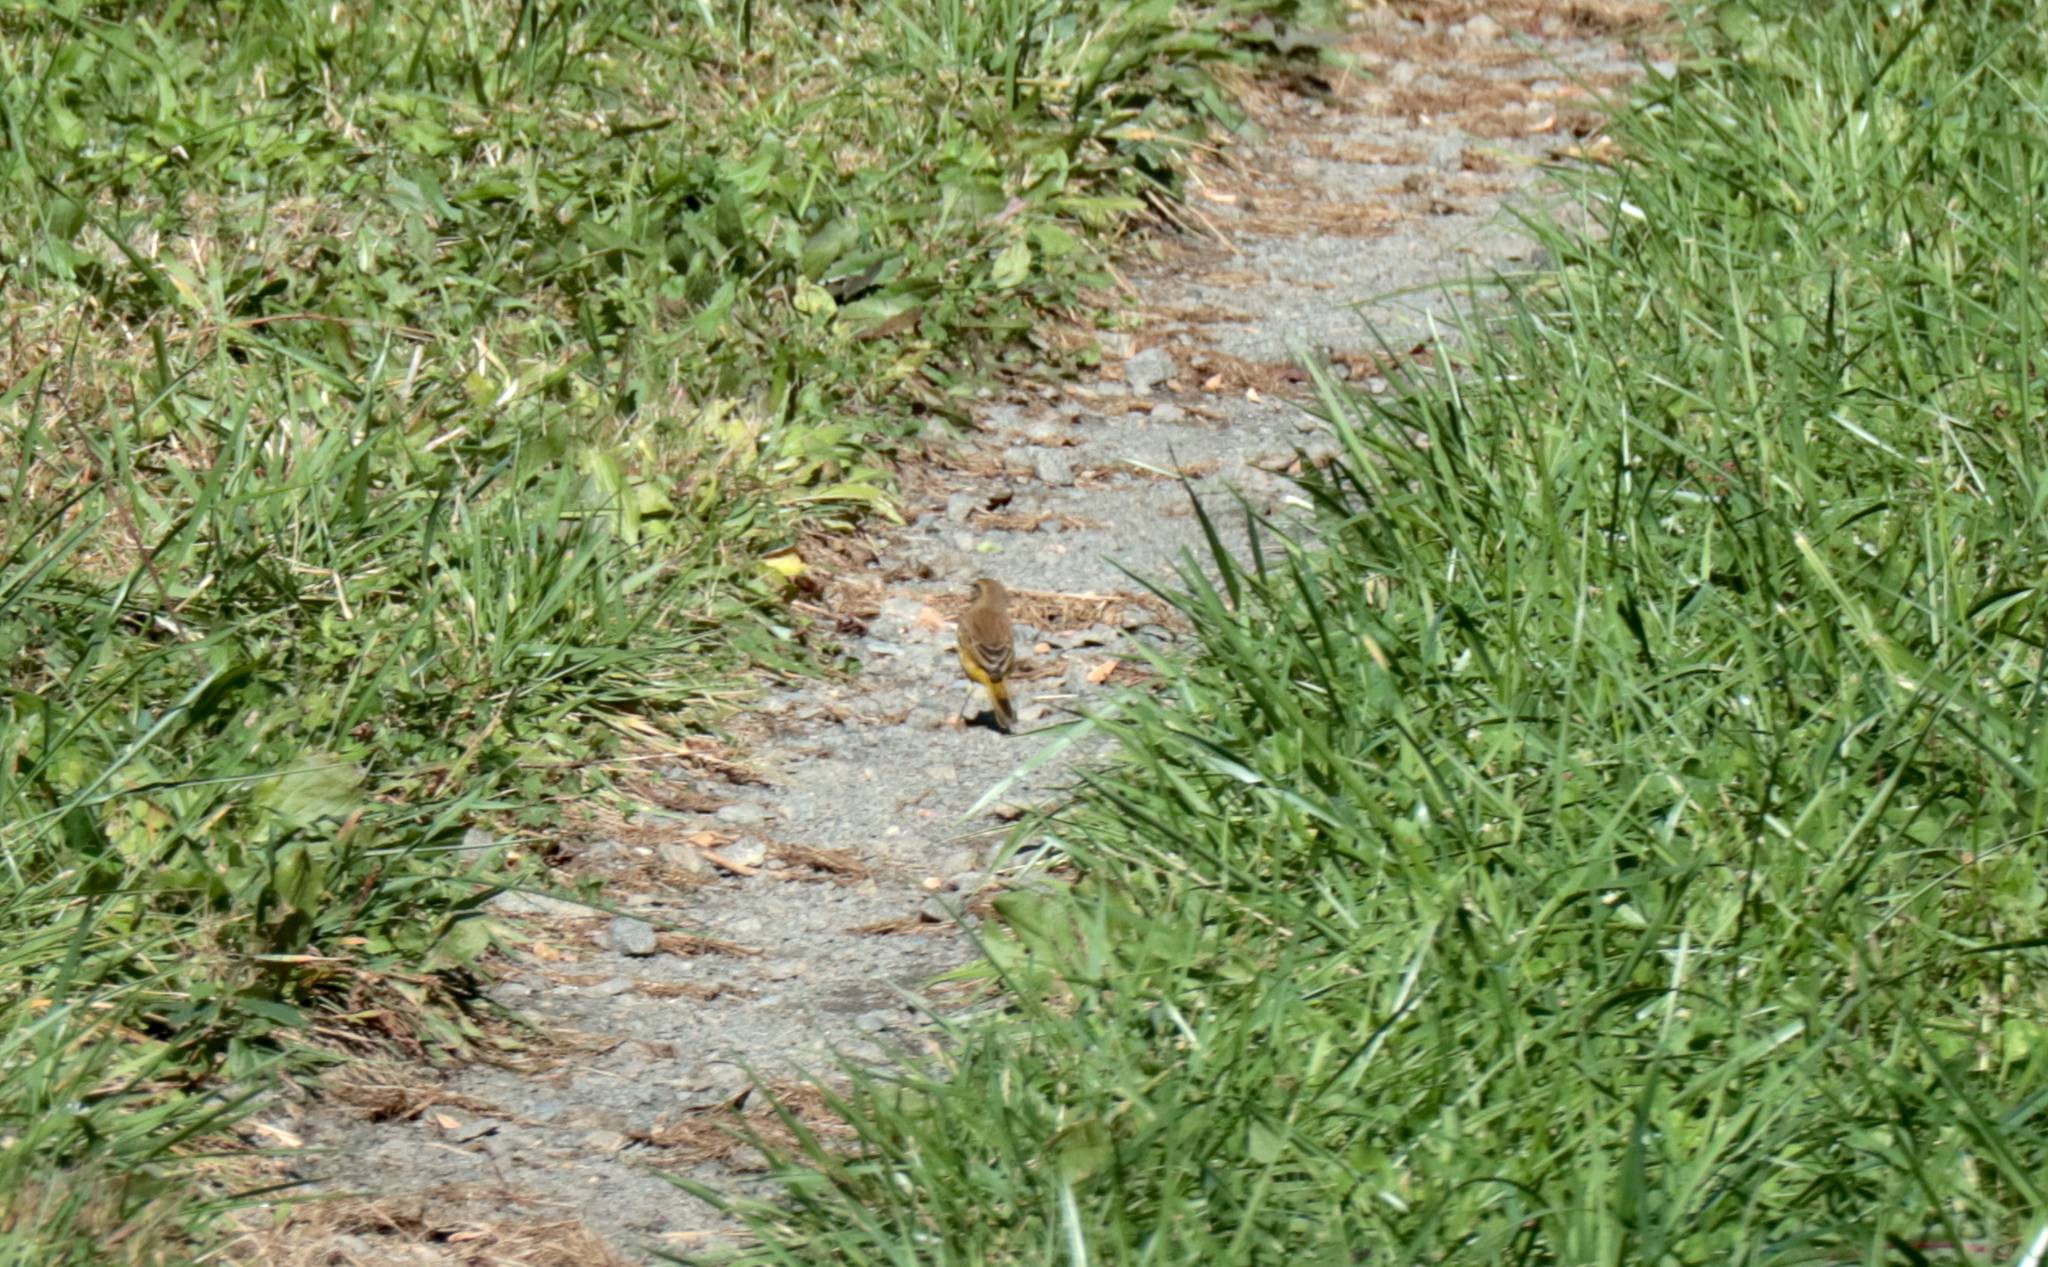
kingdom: Animalia
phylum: Chordata
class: Aves
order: Passeriformes
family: Parulidae
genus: Setophaga
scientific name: Setophaga palmarum
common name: Palm warbler
